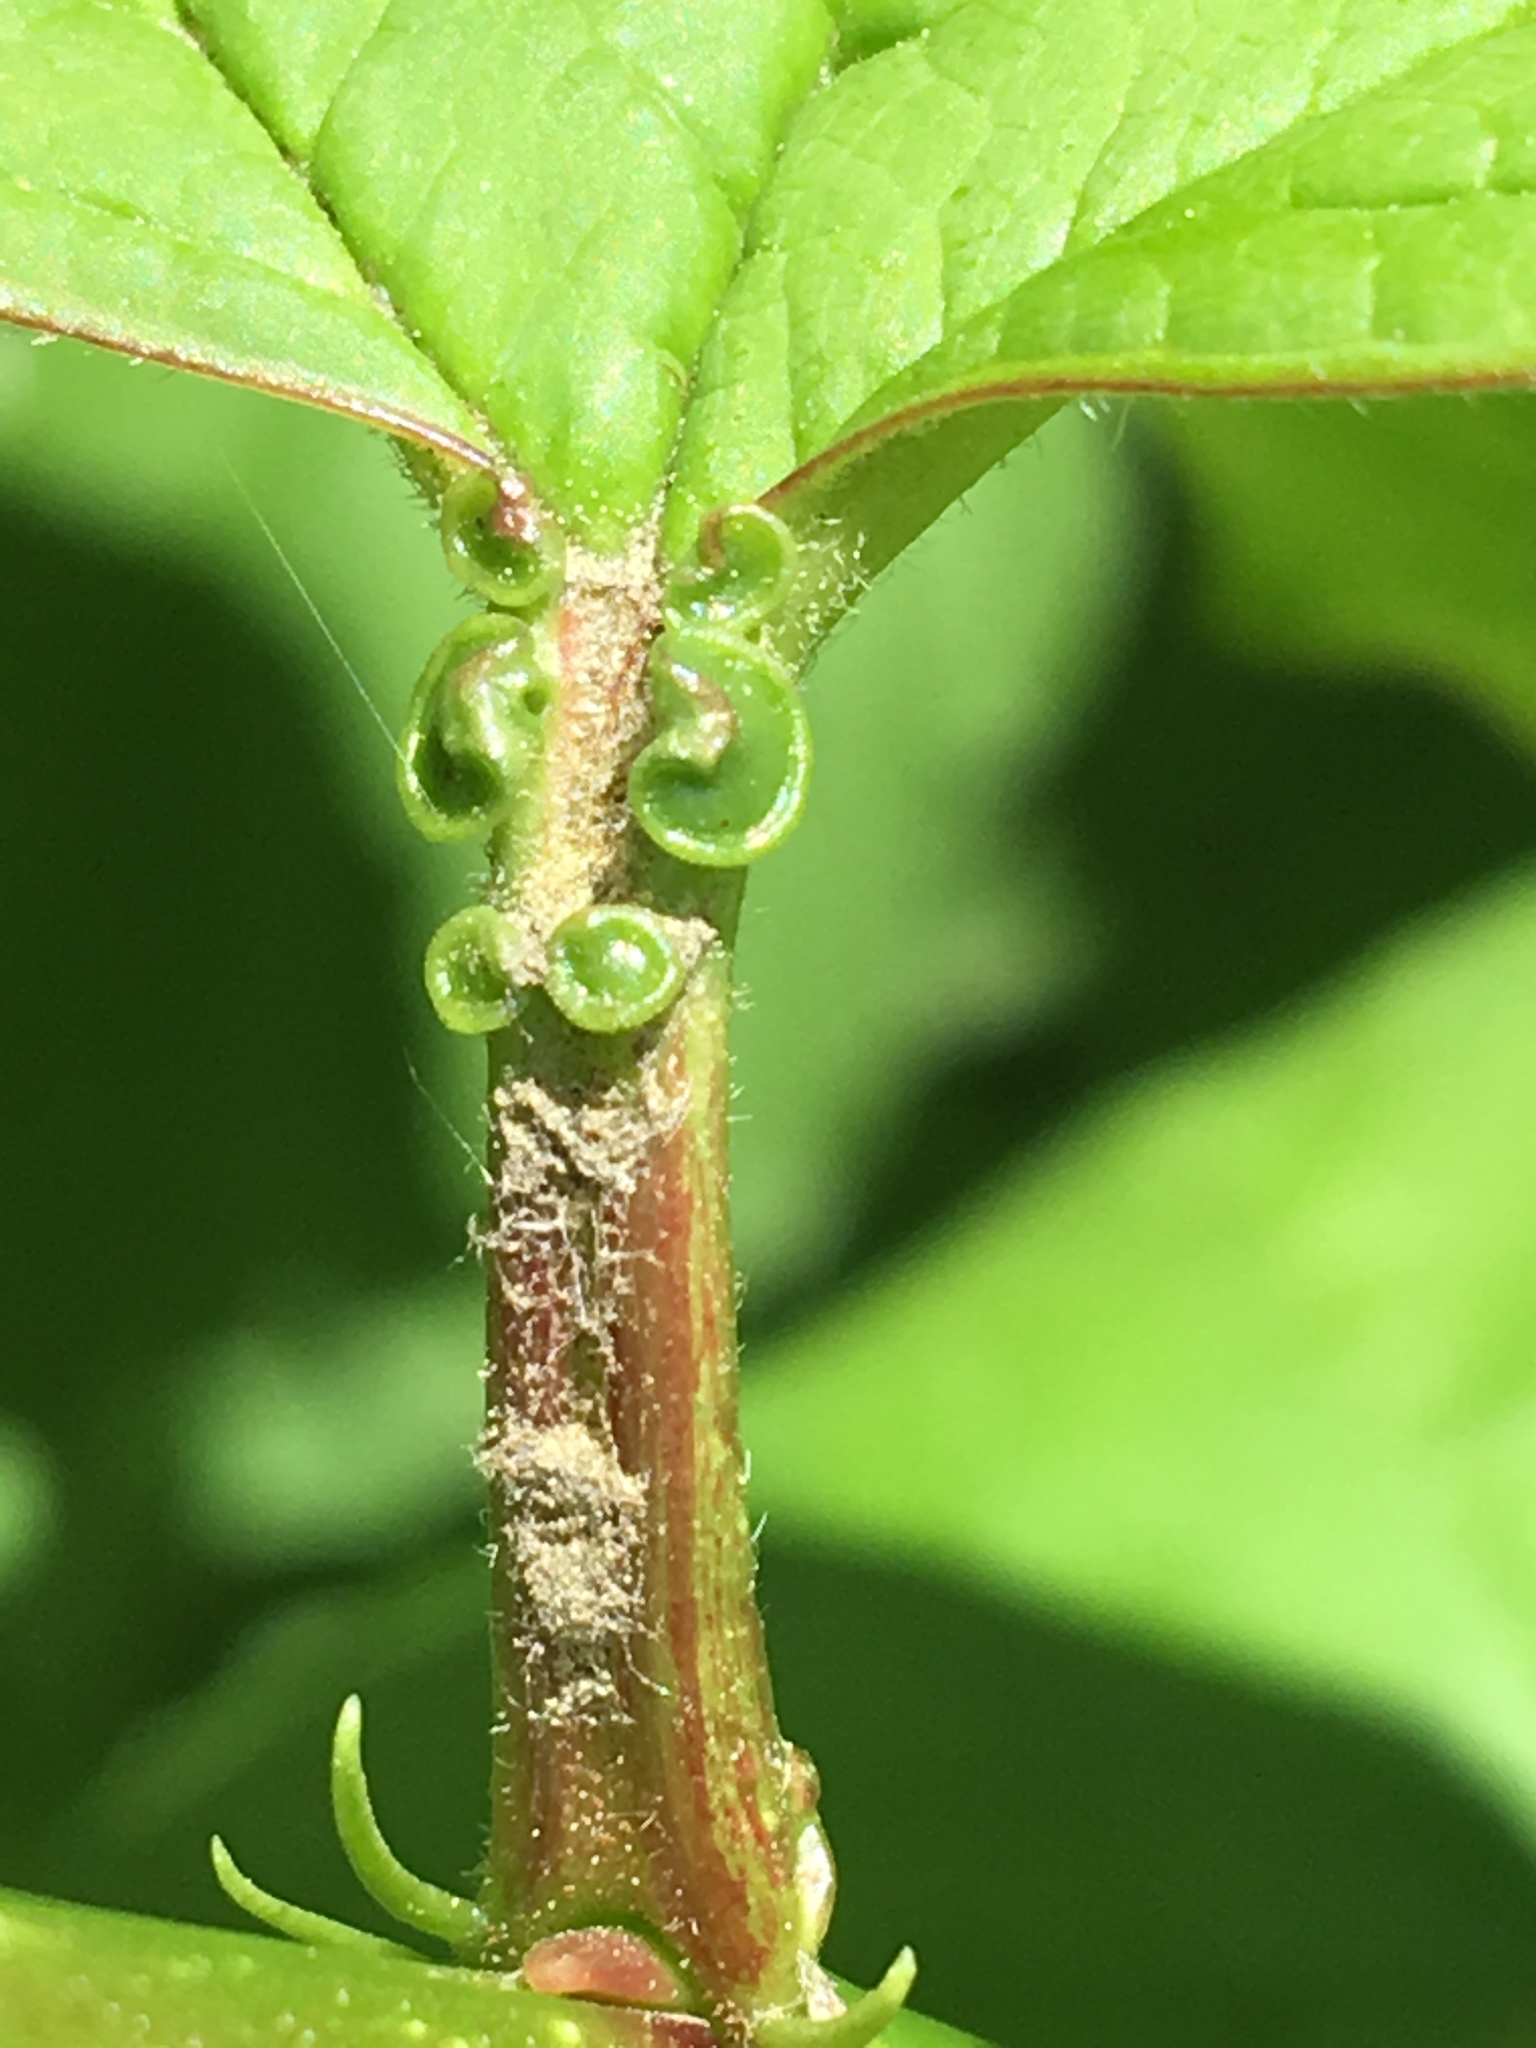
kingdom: Plantae
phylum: Tracheophyta
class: Magnoliopsida
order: Dipsacales
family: Viburnaceae
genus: Viburnum
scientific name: Viburnum opulus
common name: Guelder-rose
